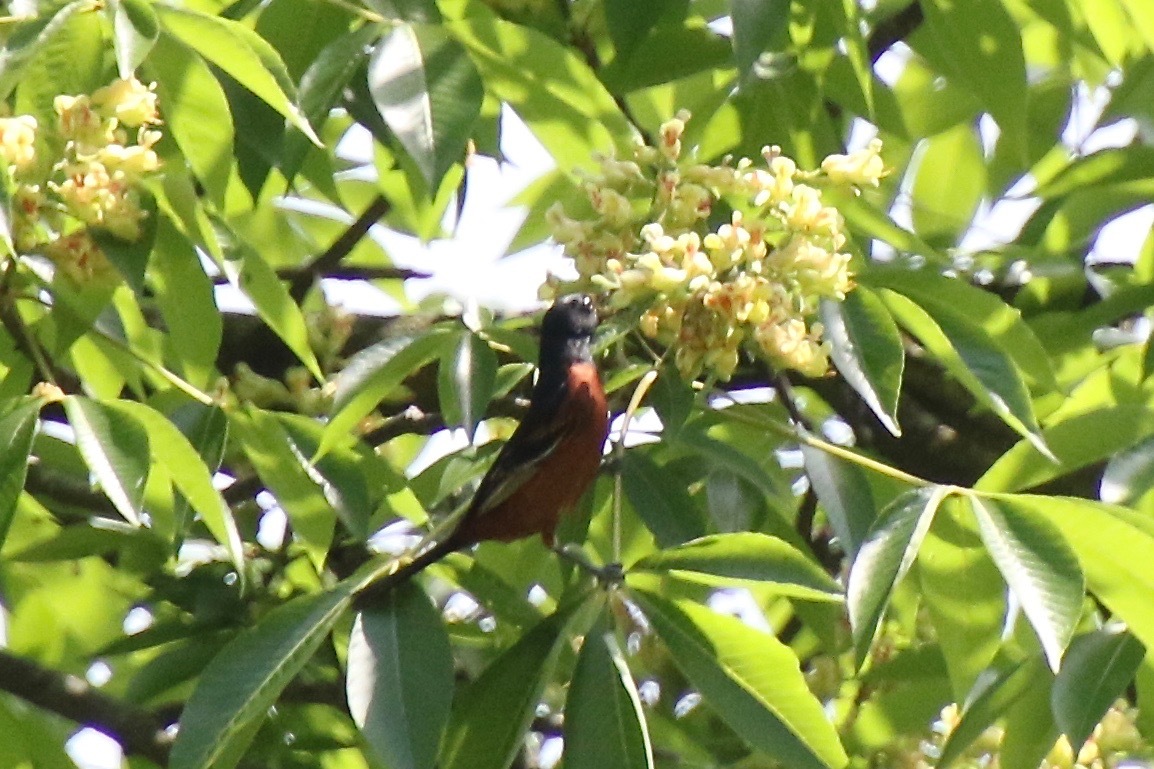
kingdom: Animalia
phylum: Chordata
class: Aves
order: Passeriformes
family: Icteridae
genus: Icterus
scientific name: Icterus spurius
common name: Orchard oriole
